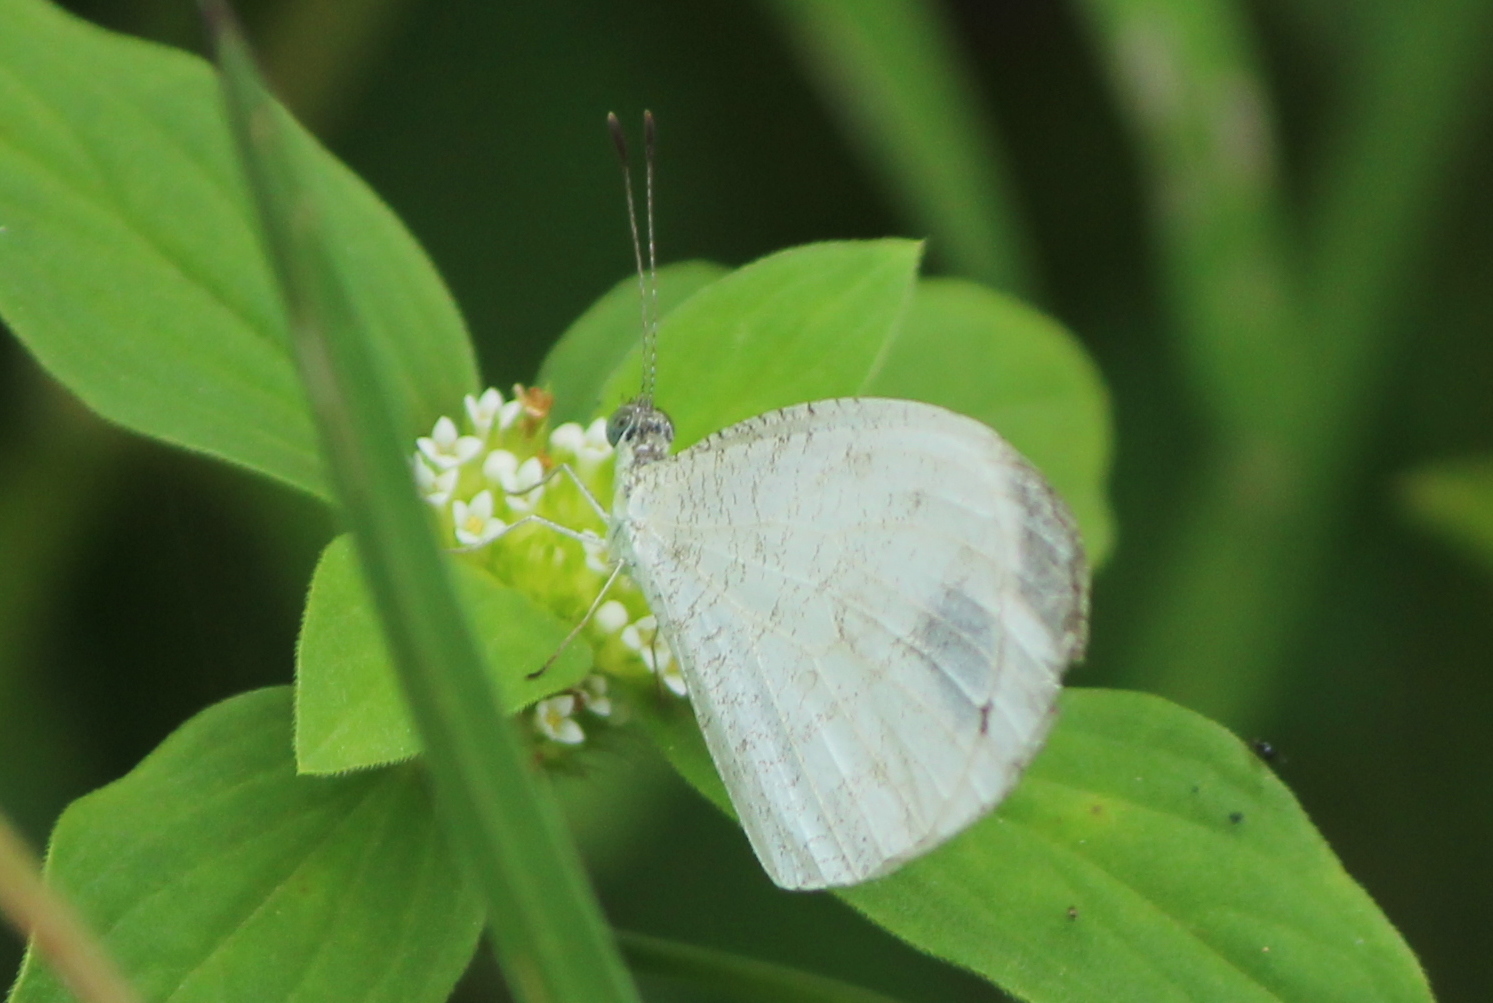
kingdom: Animalia
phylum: Arthropoda
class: Insecta
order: Lepidoptera
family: Pieridae
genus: Leptosia
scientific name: Leptosia nina
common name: Psyche
